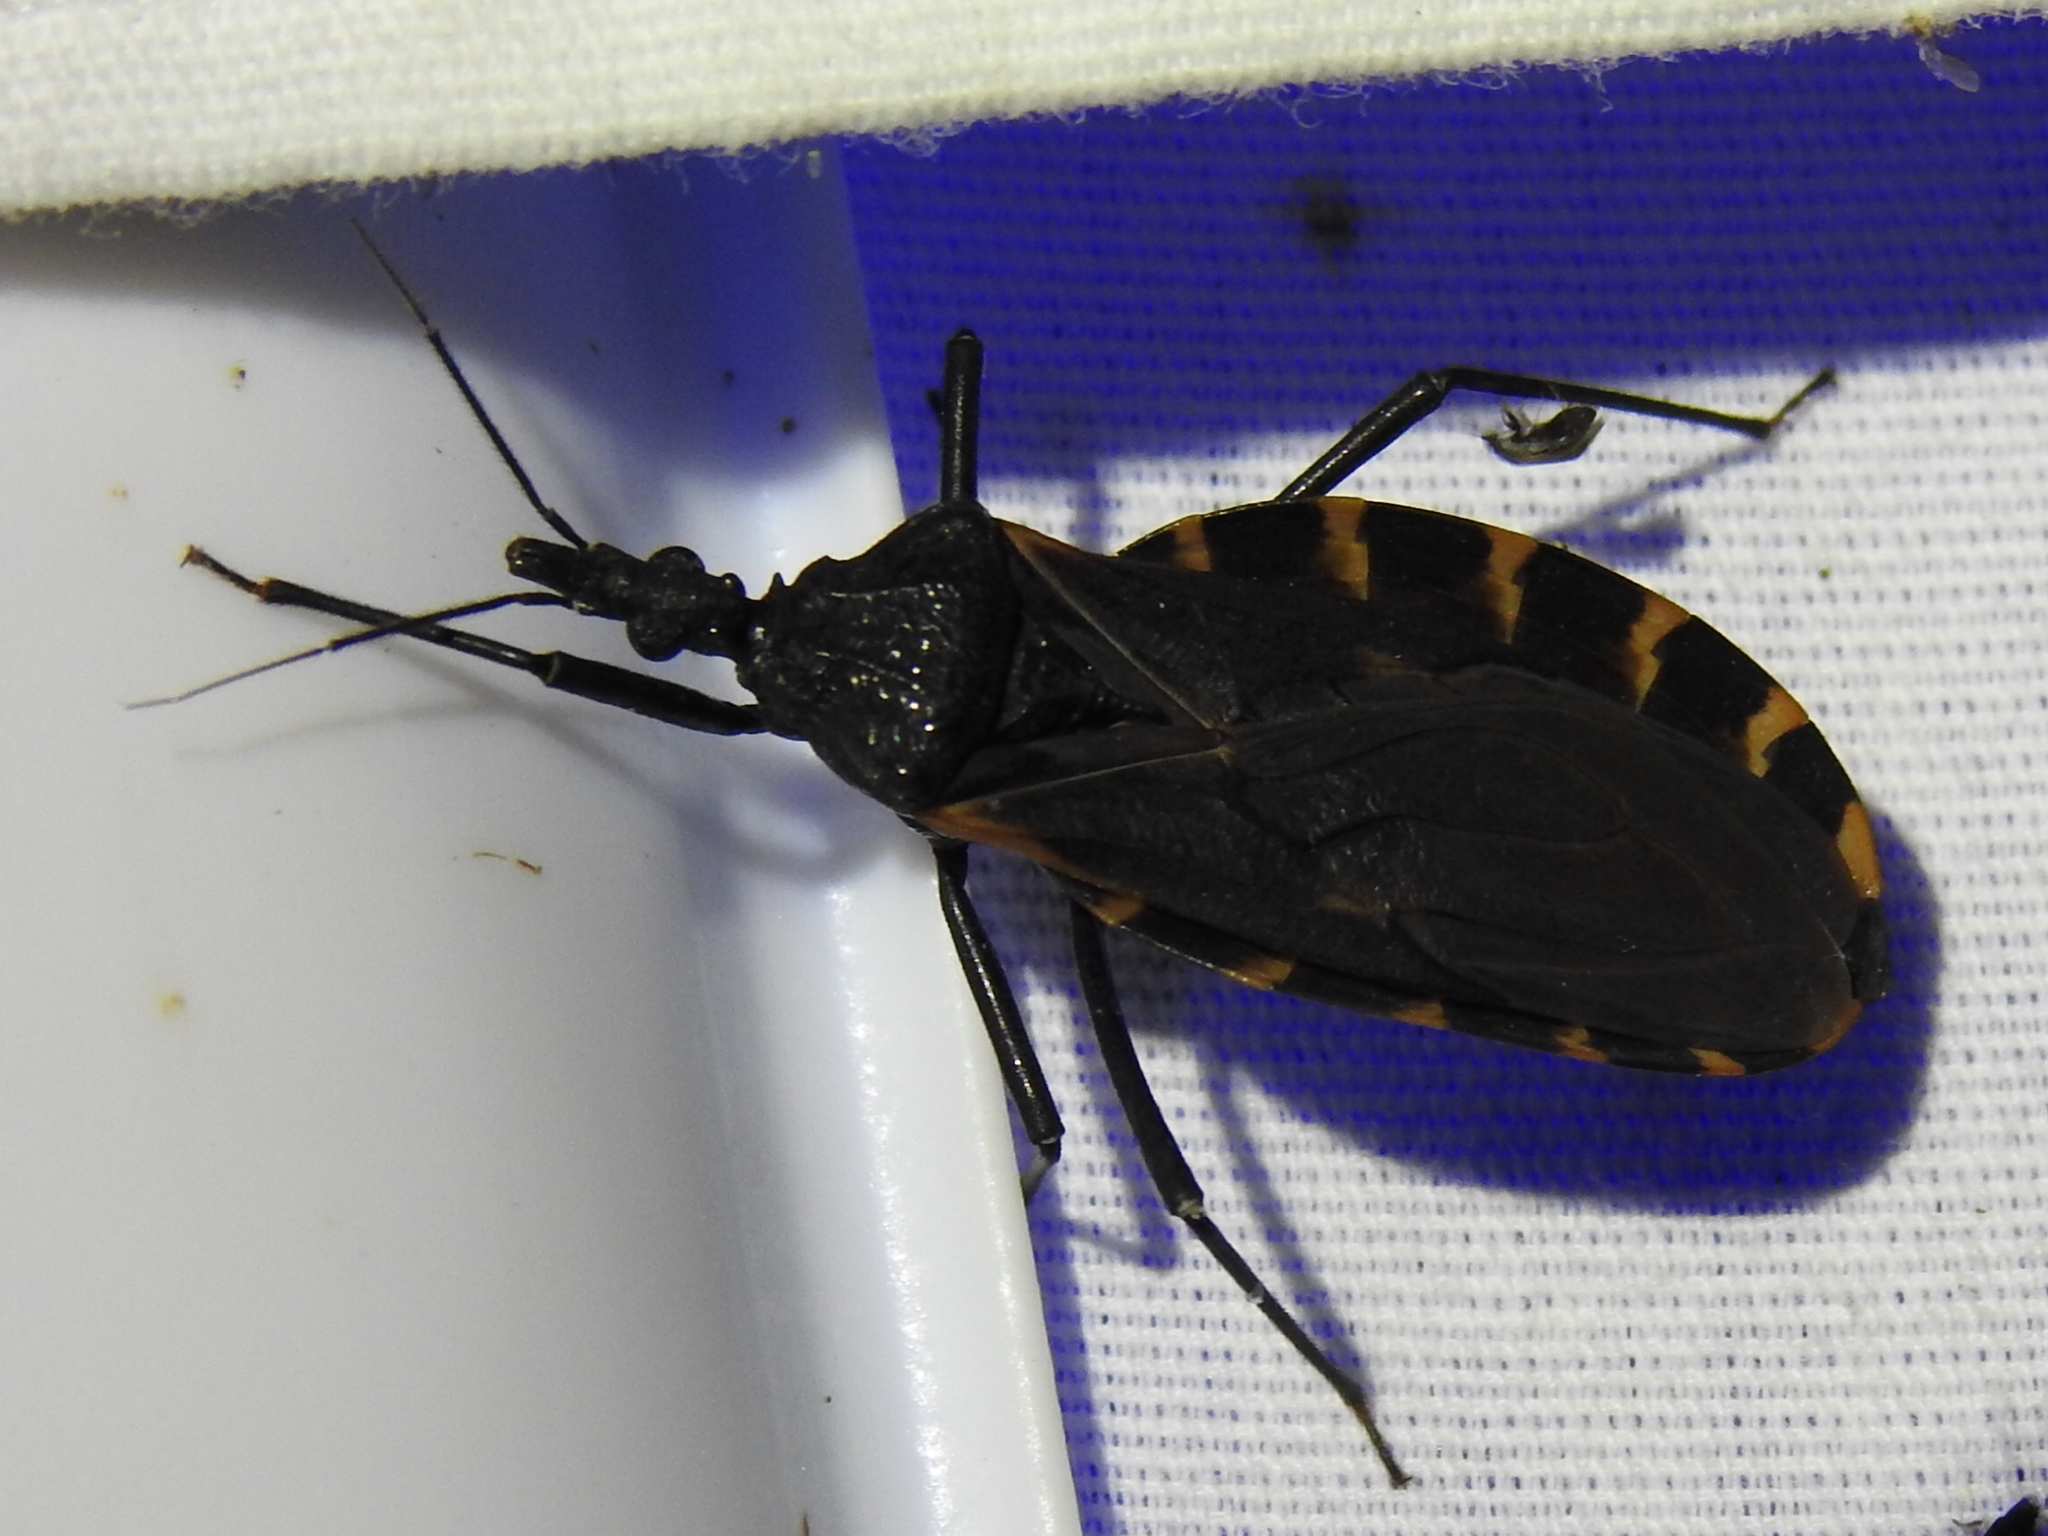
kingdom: Animalia
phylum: Arthropoda
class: Insecta
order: Hemiptera
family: Reduviidae
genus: Triatoma
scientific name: Triatoma gerstaeckeri
